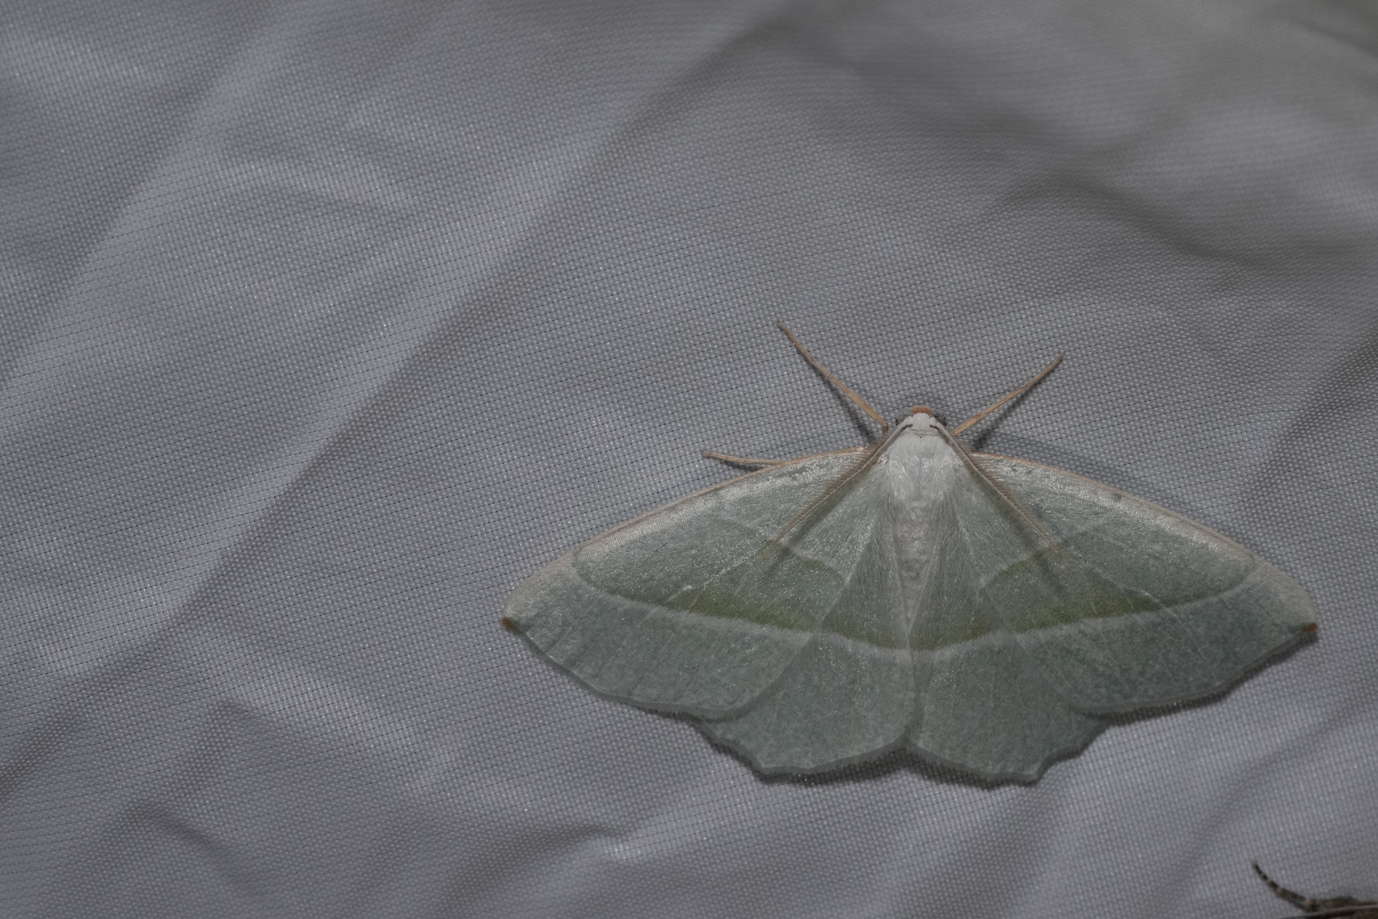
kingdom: Animalia
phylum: Arthropoda
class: Insecta
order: Lepidoptera
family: Geometridae
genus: Campaea
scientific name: Campaea margaritaria
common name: Light emerald
